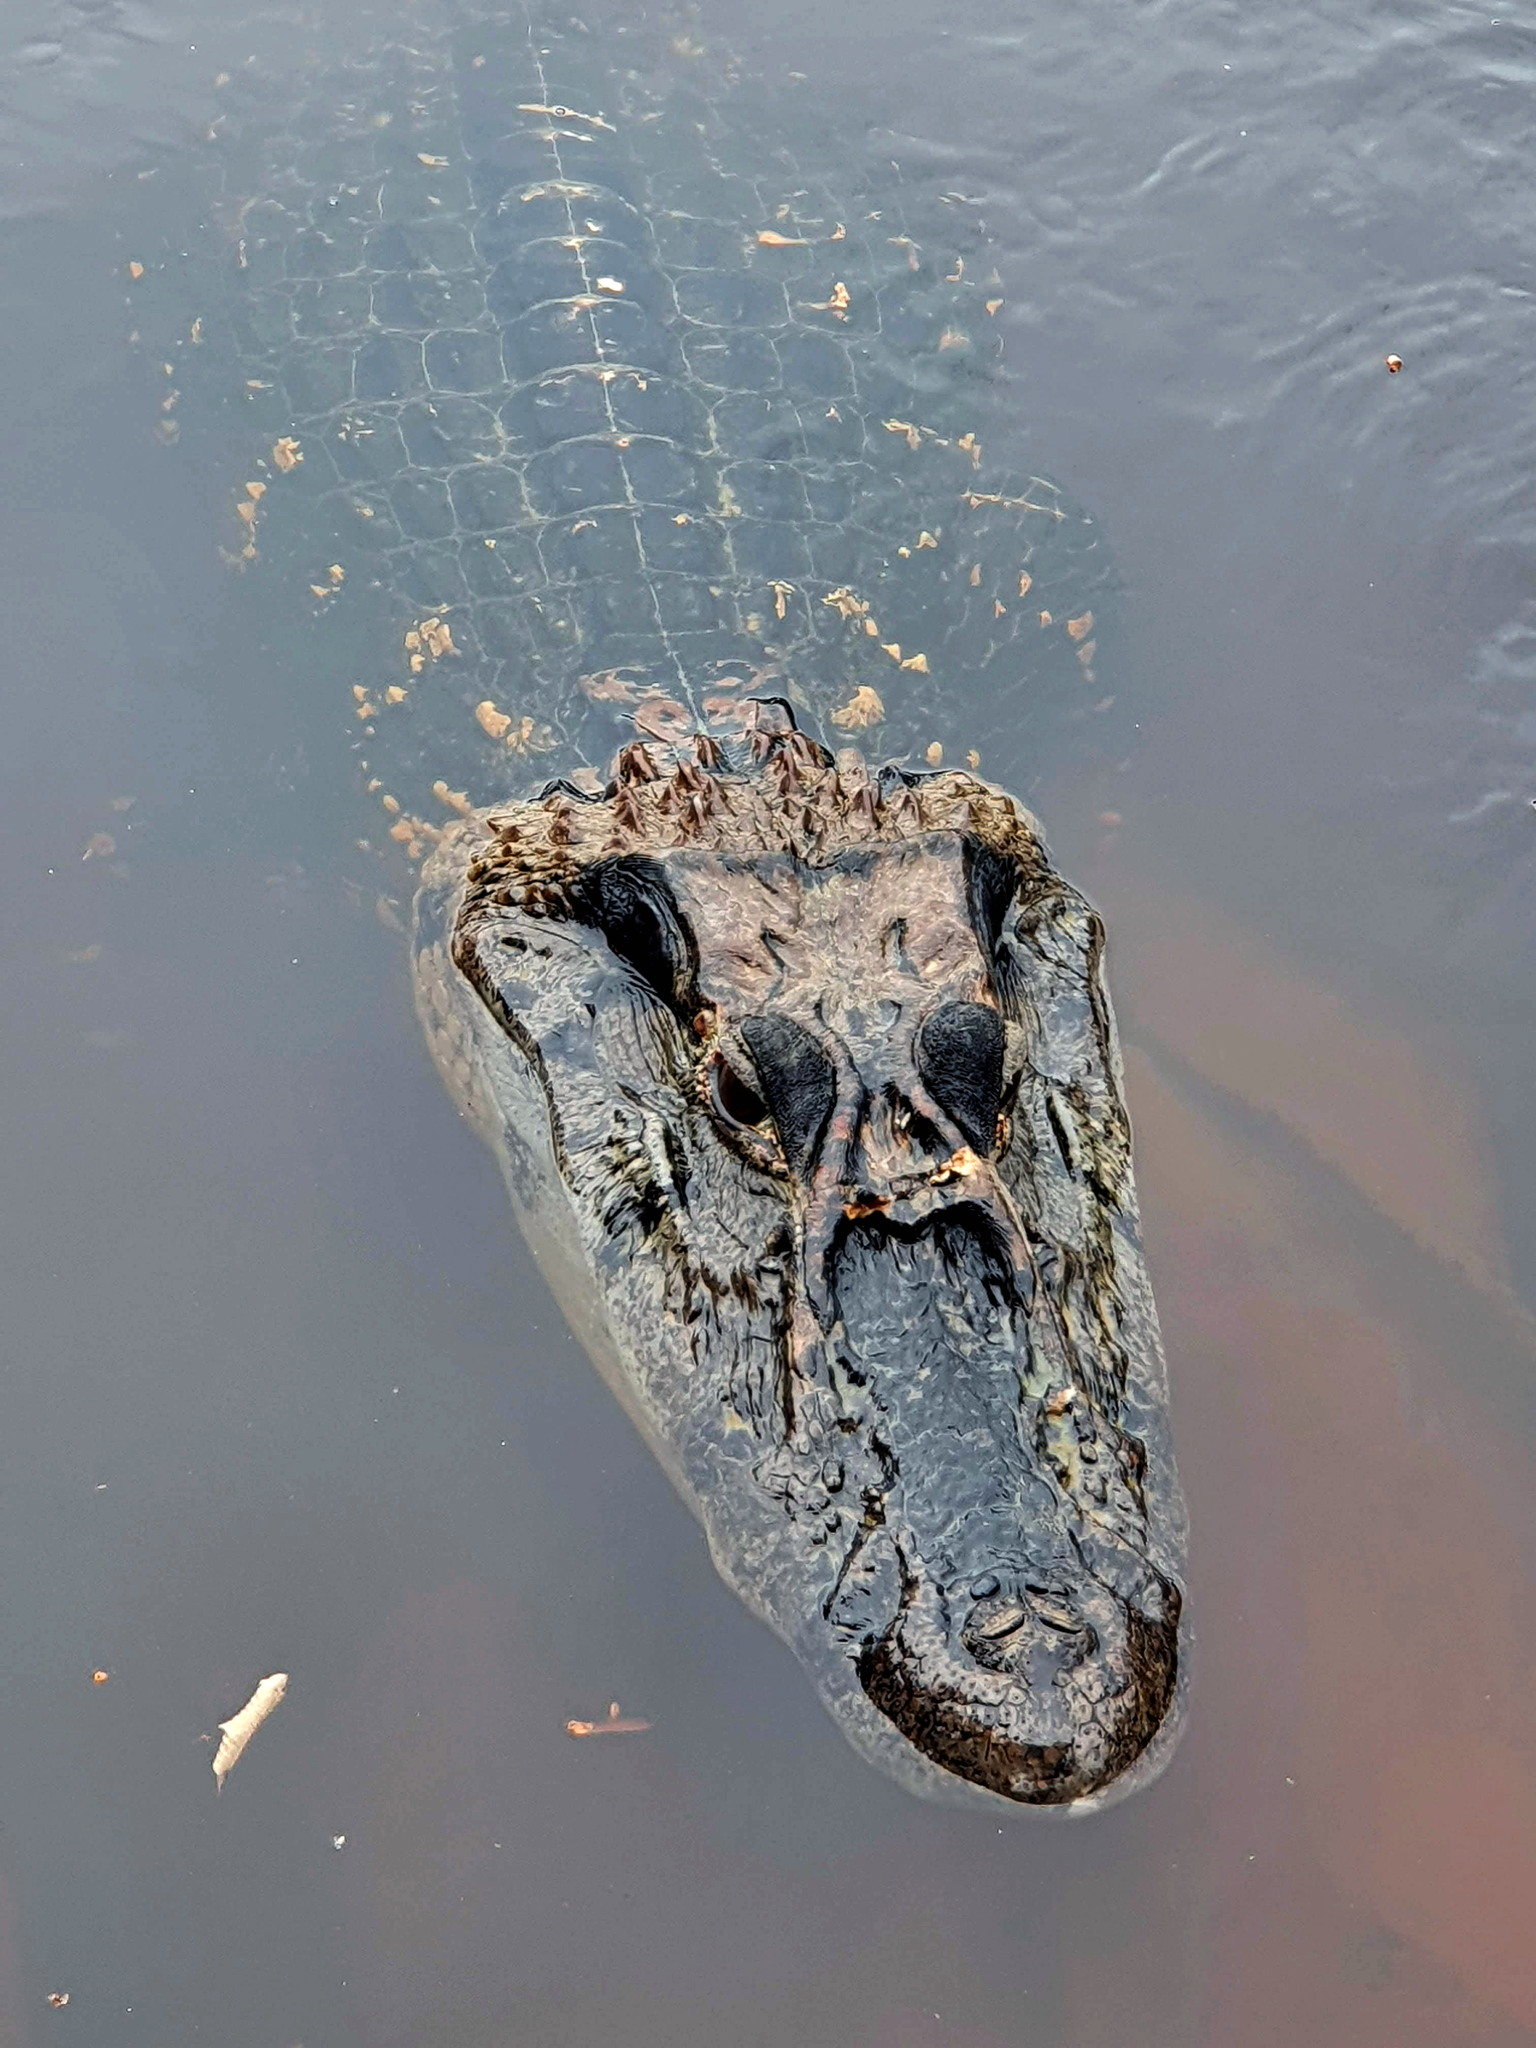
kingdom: Animalia
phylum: Chordata
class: Crocodylia
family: Alligatoridae
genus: Melanosuchus
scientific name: Melanosuchus niger
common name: Black caiman
